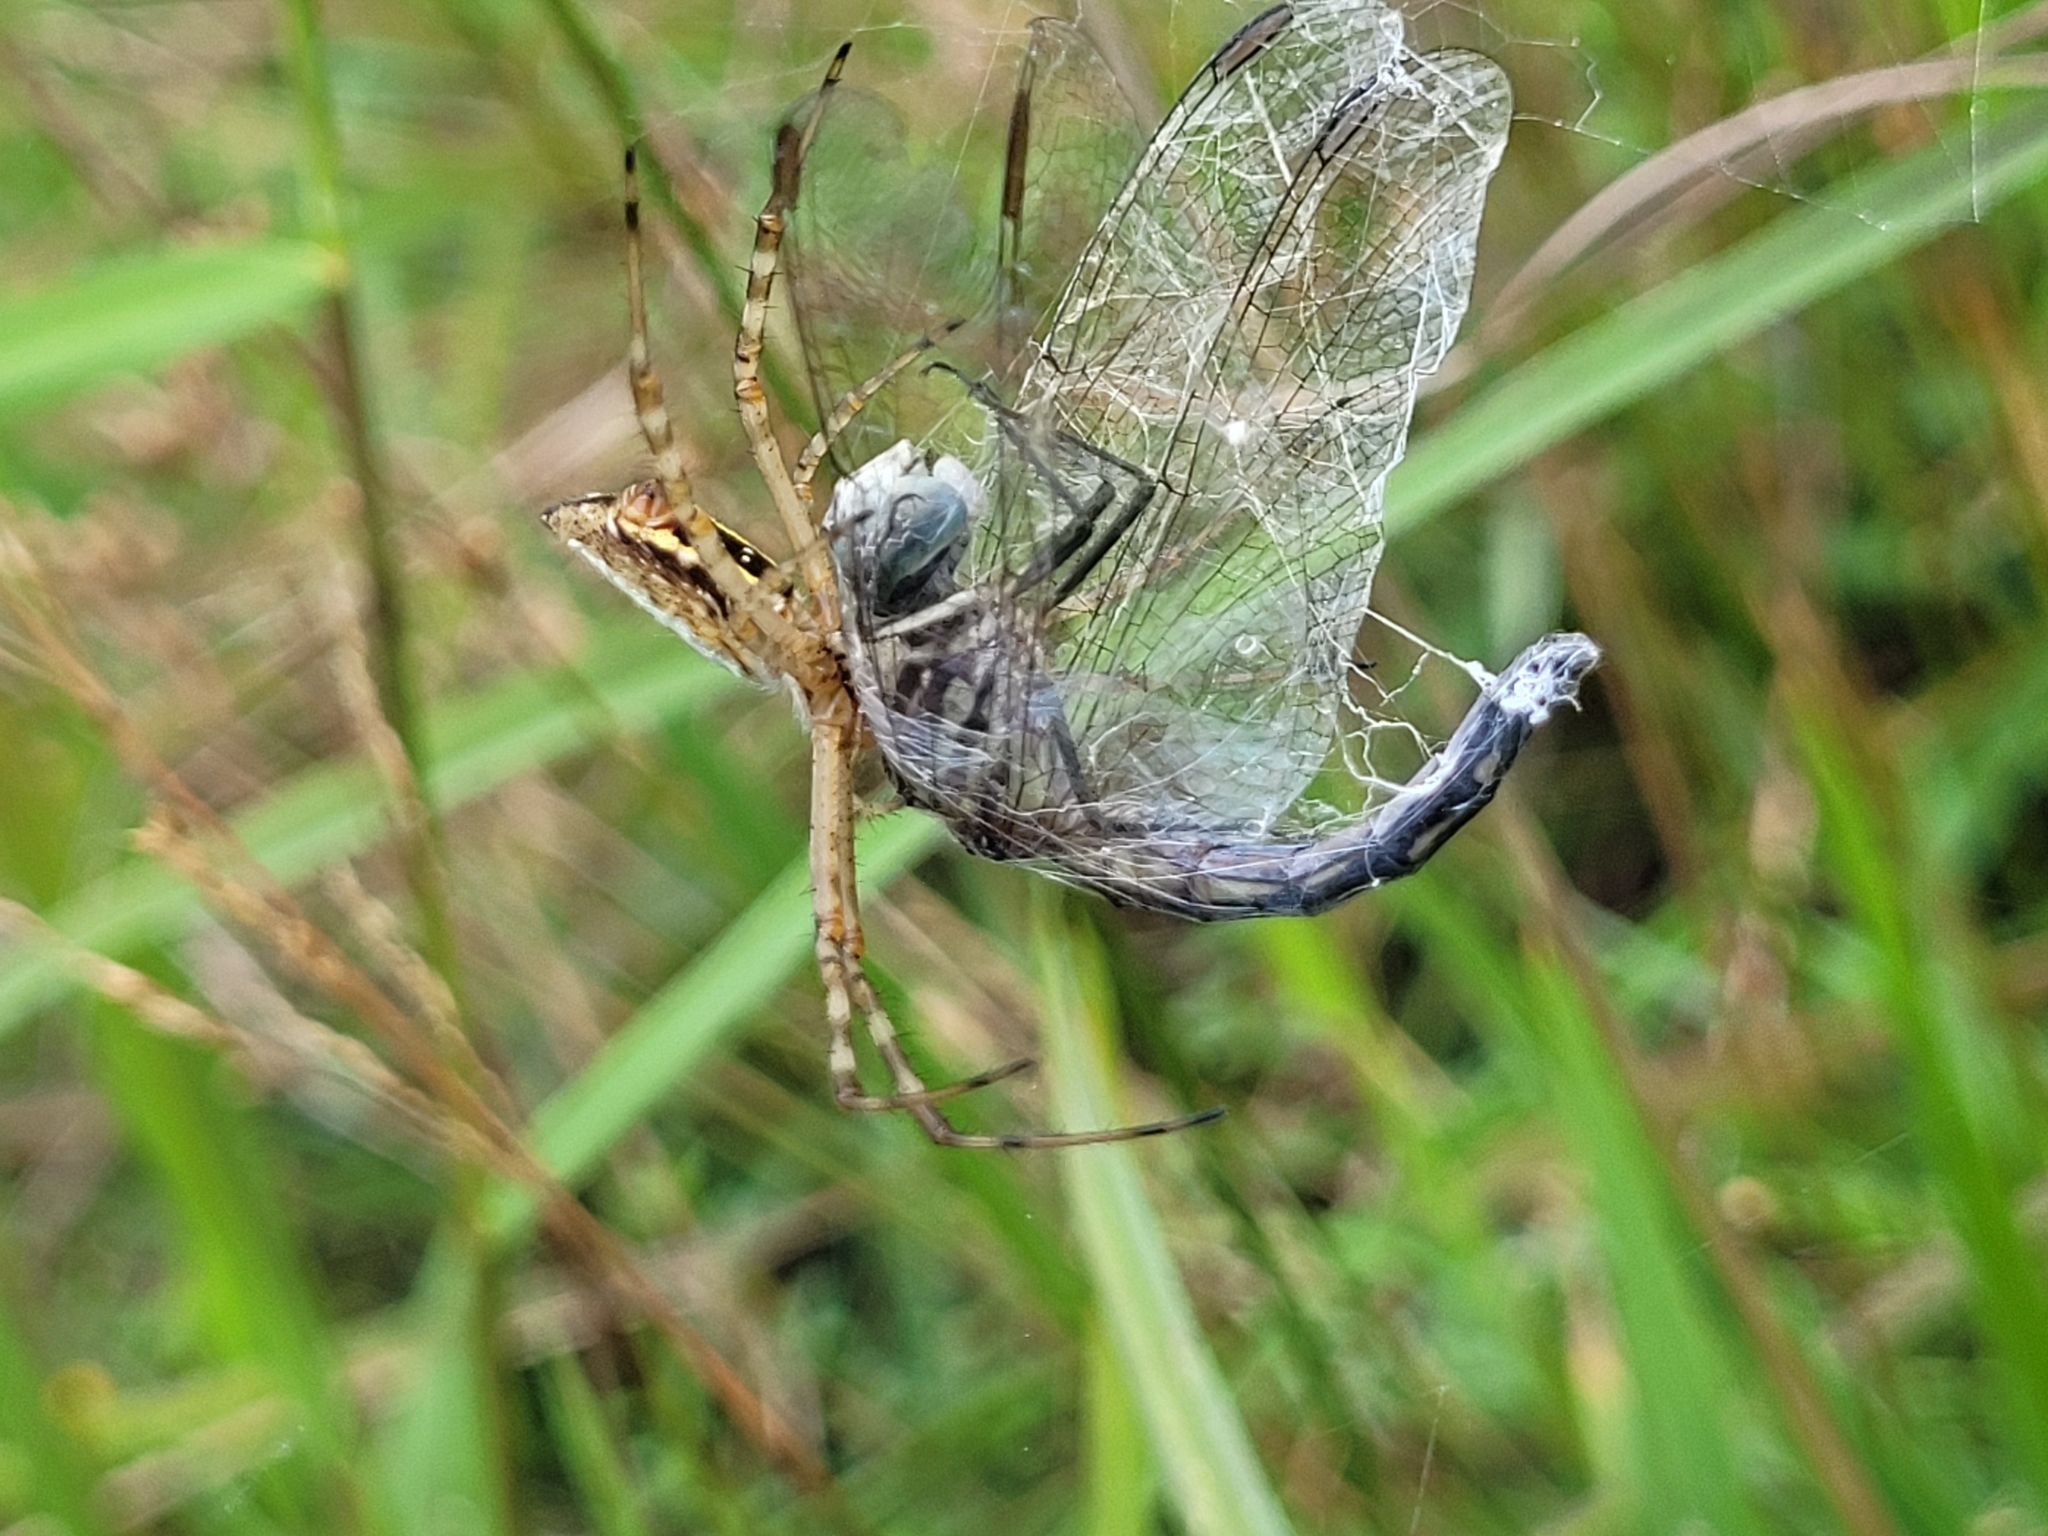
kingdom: Animalia
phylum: Arthropoda
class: Insecta
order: Odonata
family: Libellulidae
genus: Pachydiplax
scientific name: Pachydiplax longipennis
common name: Blue dasher
